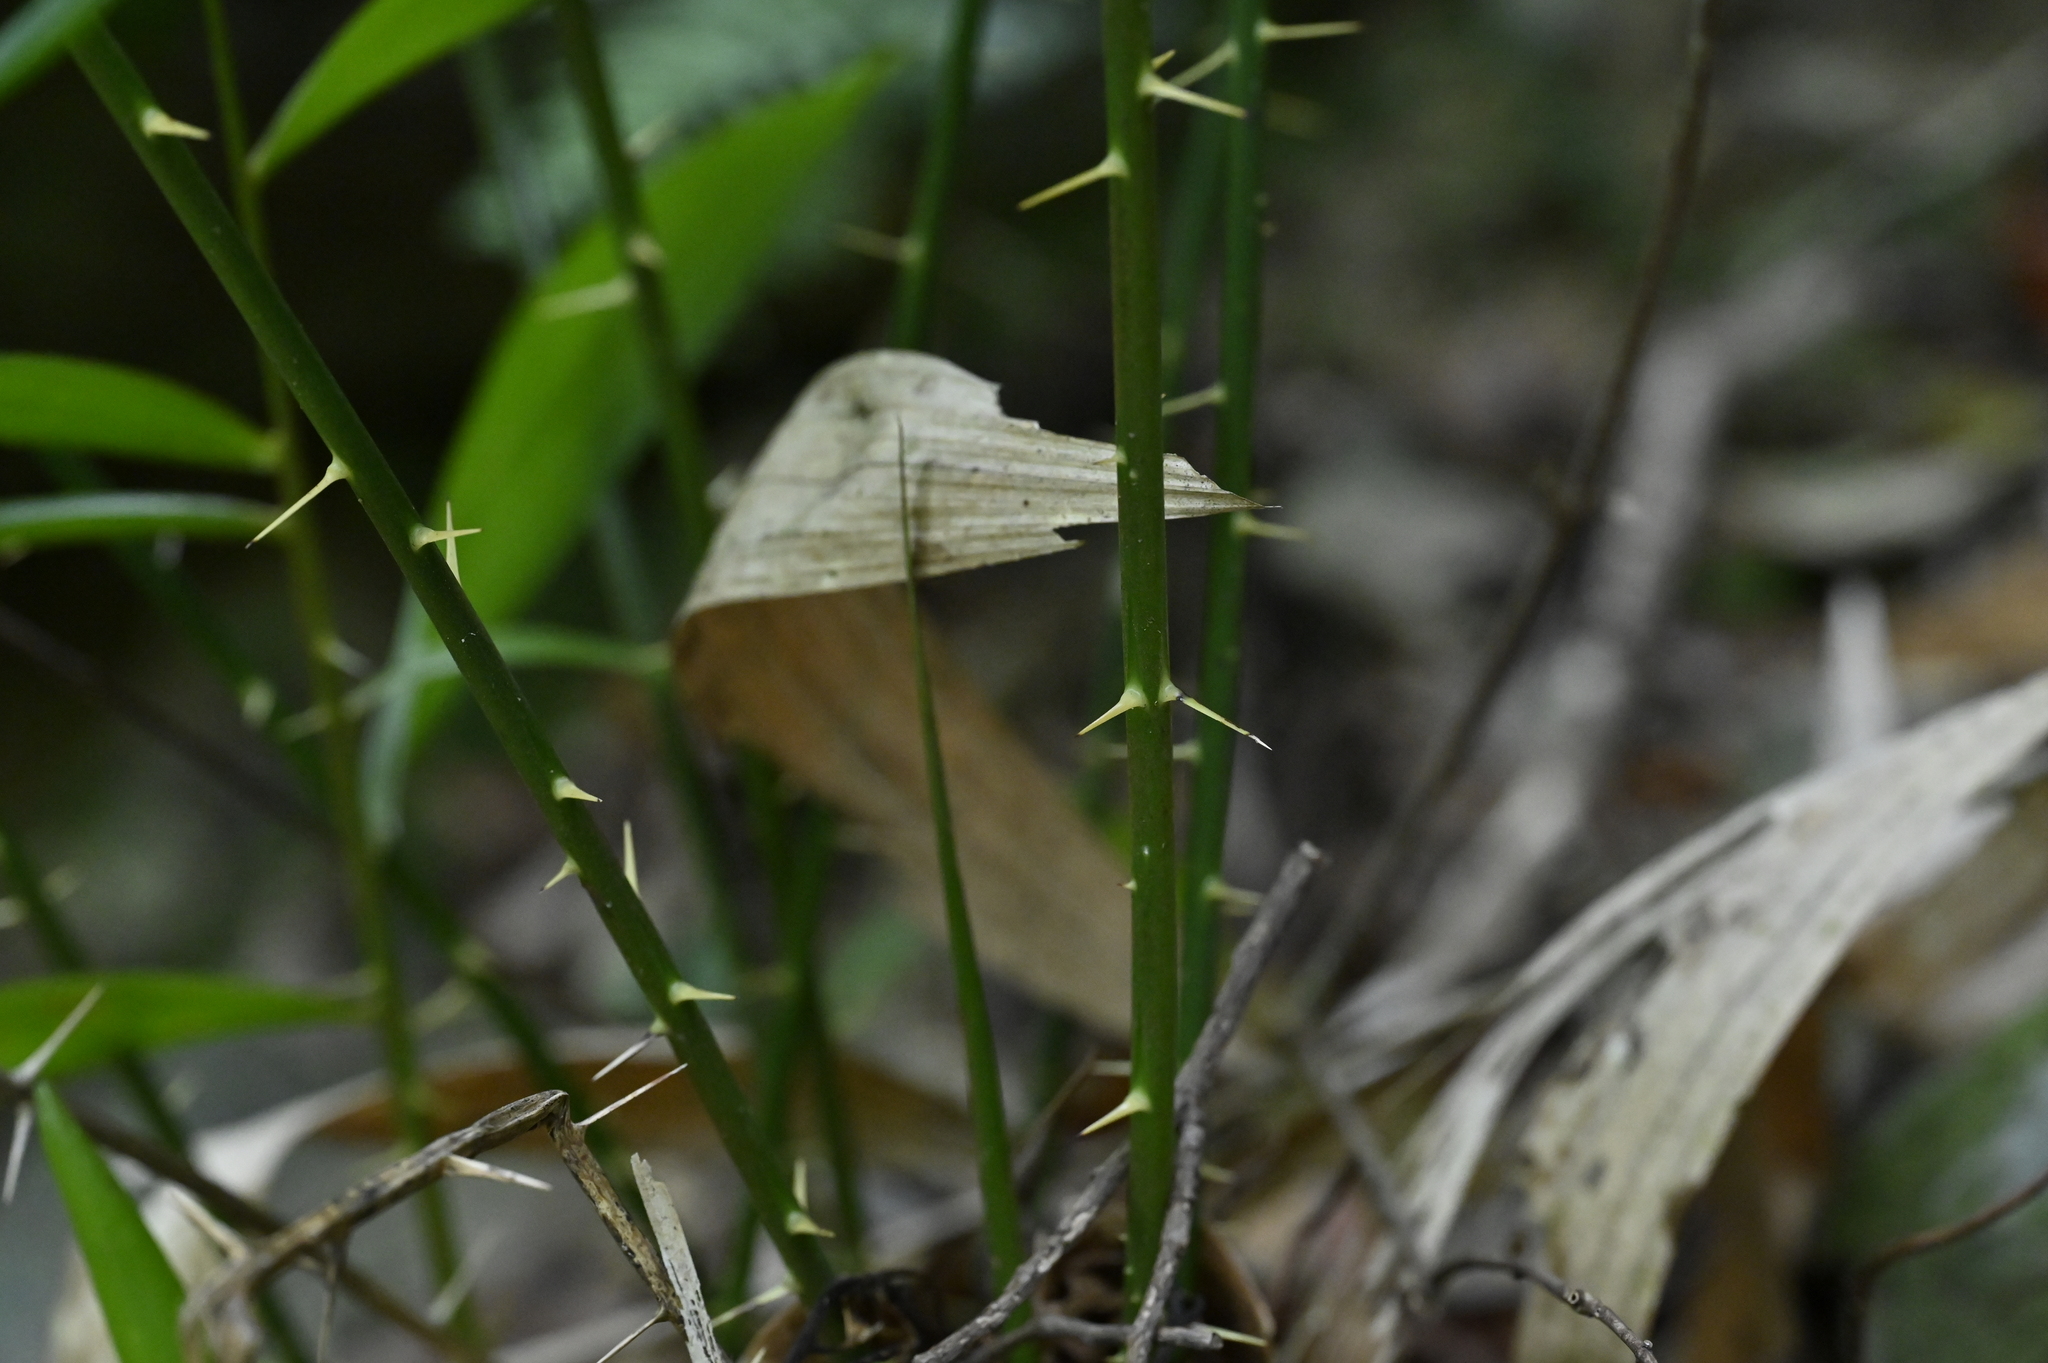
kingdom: Plantae
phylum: Tracheophyta
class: Liliopsida
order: Arecales
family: Arecaceae
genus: Calamus
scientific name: Calamus formosanus
